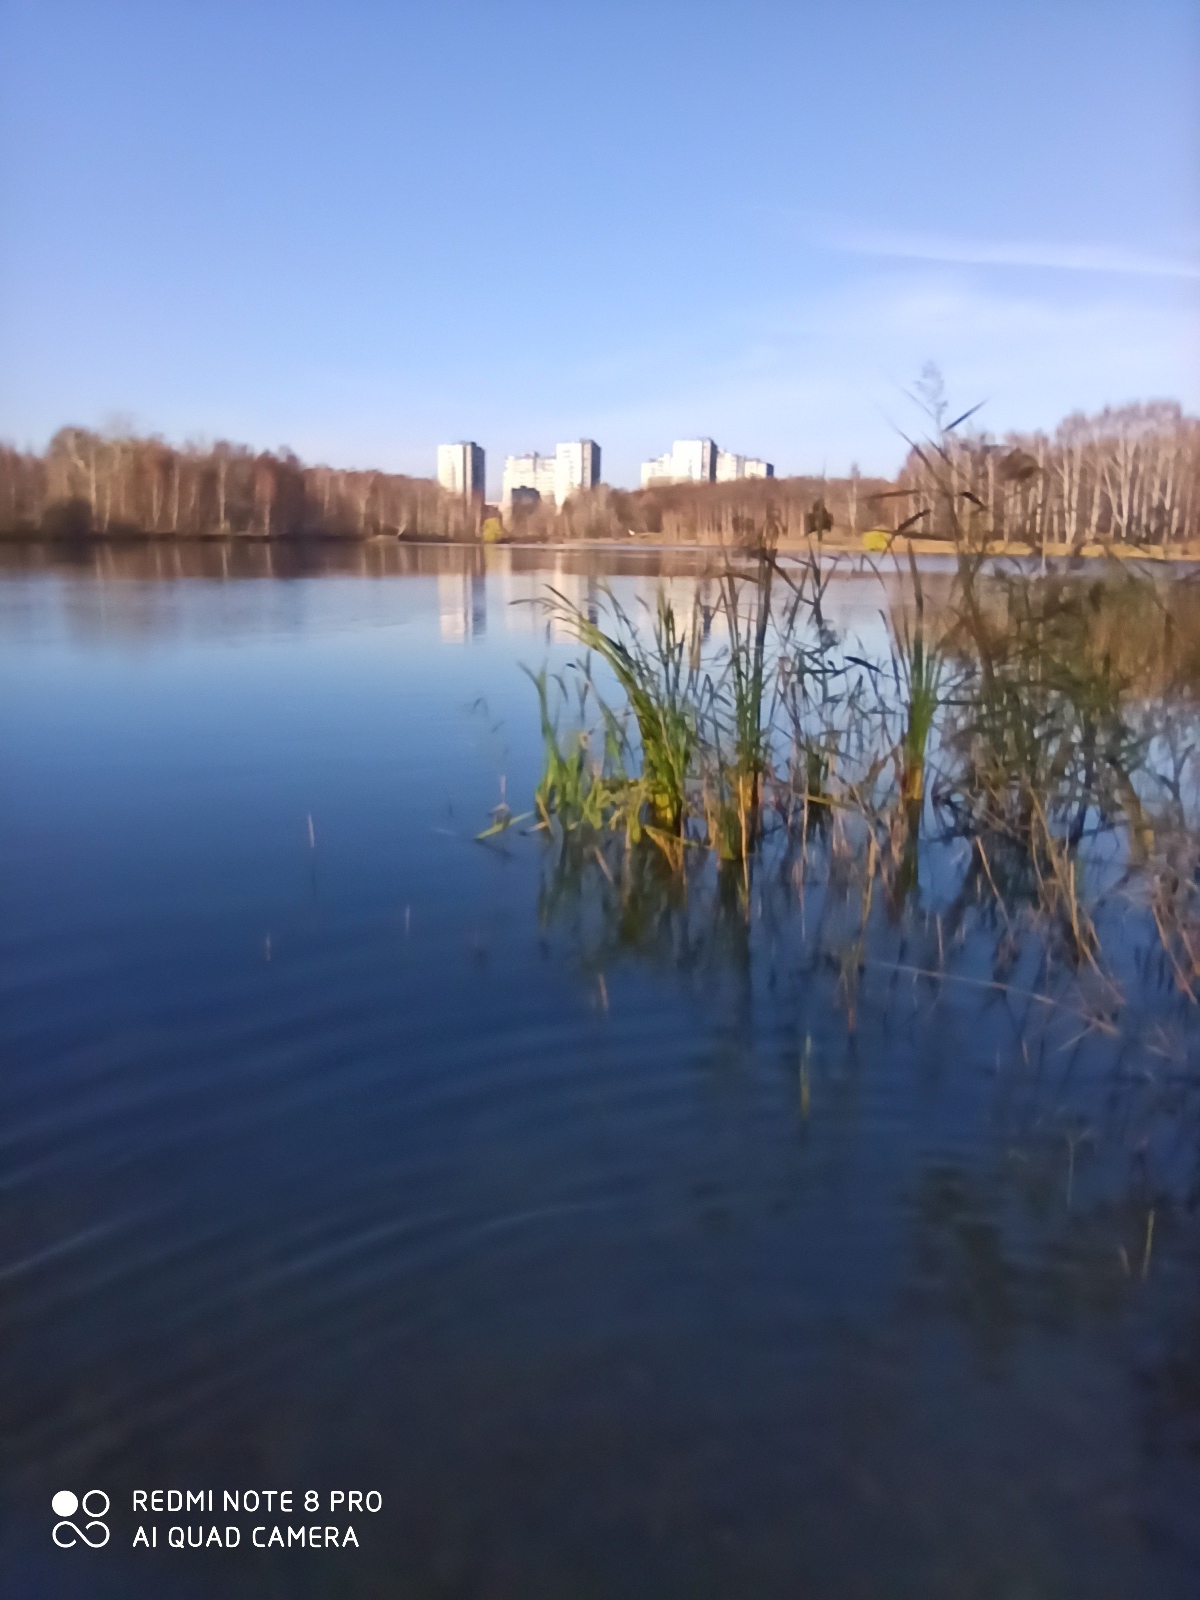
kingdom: Plantae
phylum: Tracheophyta
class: Liliopsida
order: Poales
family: Typhaceae
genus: Typha
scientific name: Typha latifolia
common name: Broadleaf cattail
